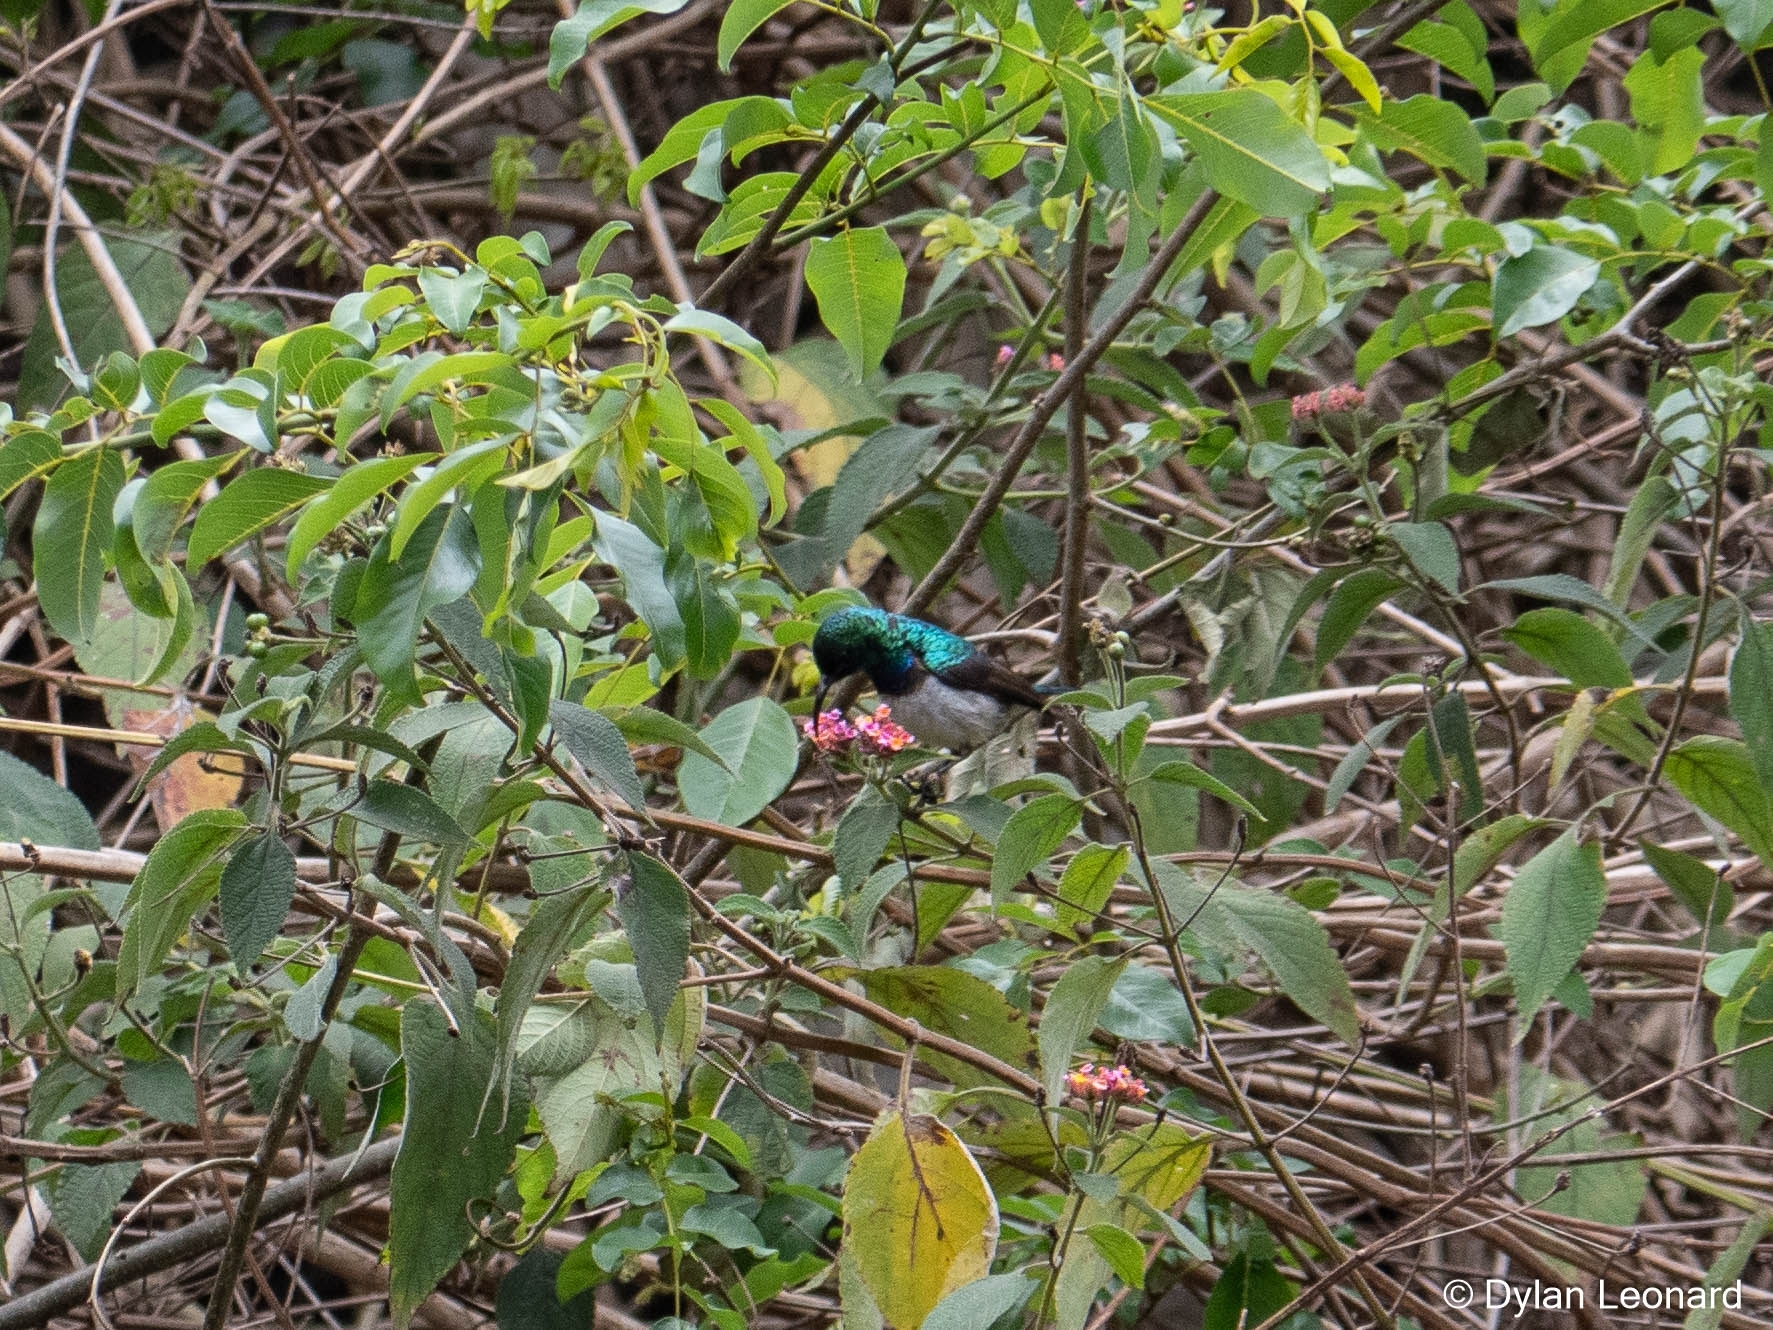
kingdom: Animalia
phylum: Chordata
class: Aves
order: Passeriformes
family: Nectariniidae
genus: Cinnyris
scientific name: Cinnyris talatala
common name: White-bellied sunbird
